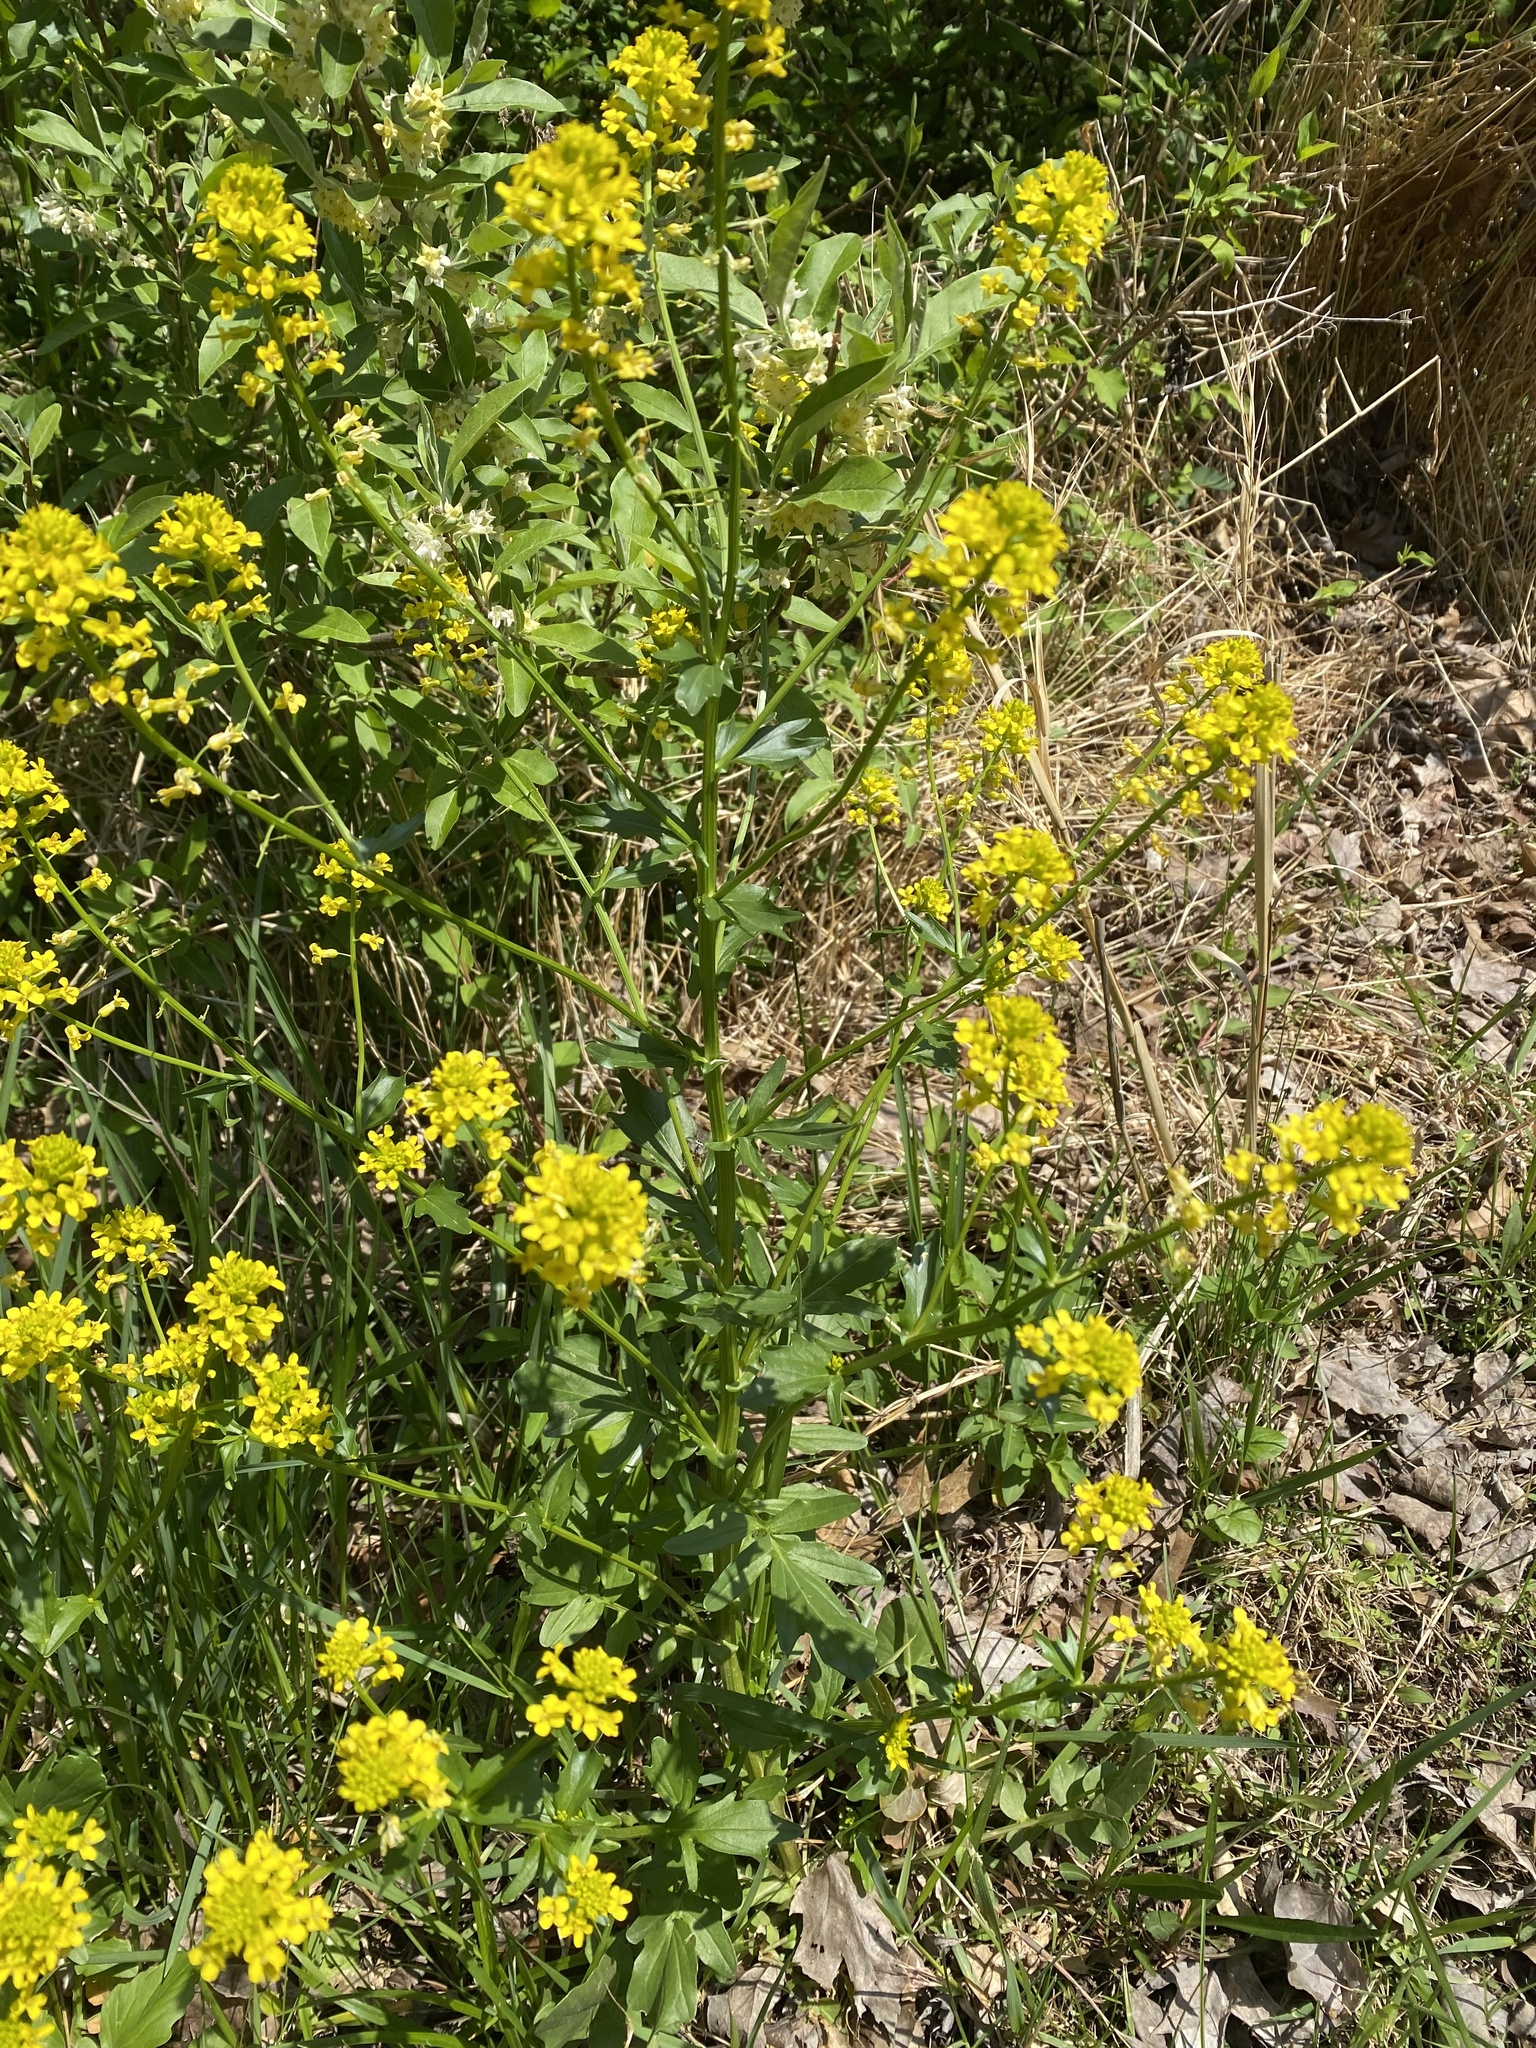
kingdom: Plantae
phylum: Tracheophyta
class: Magnoliopsida
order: Brassicales
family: Brassicaceae
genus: Barbarea
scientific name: Barbarea vulgaris
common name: Cressy-greens
